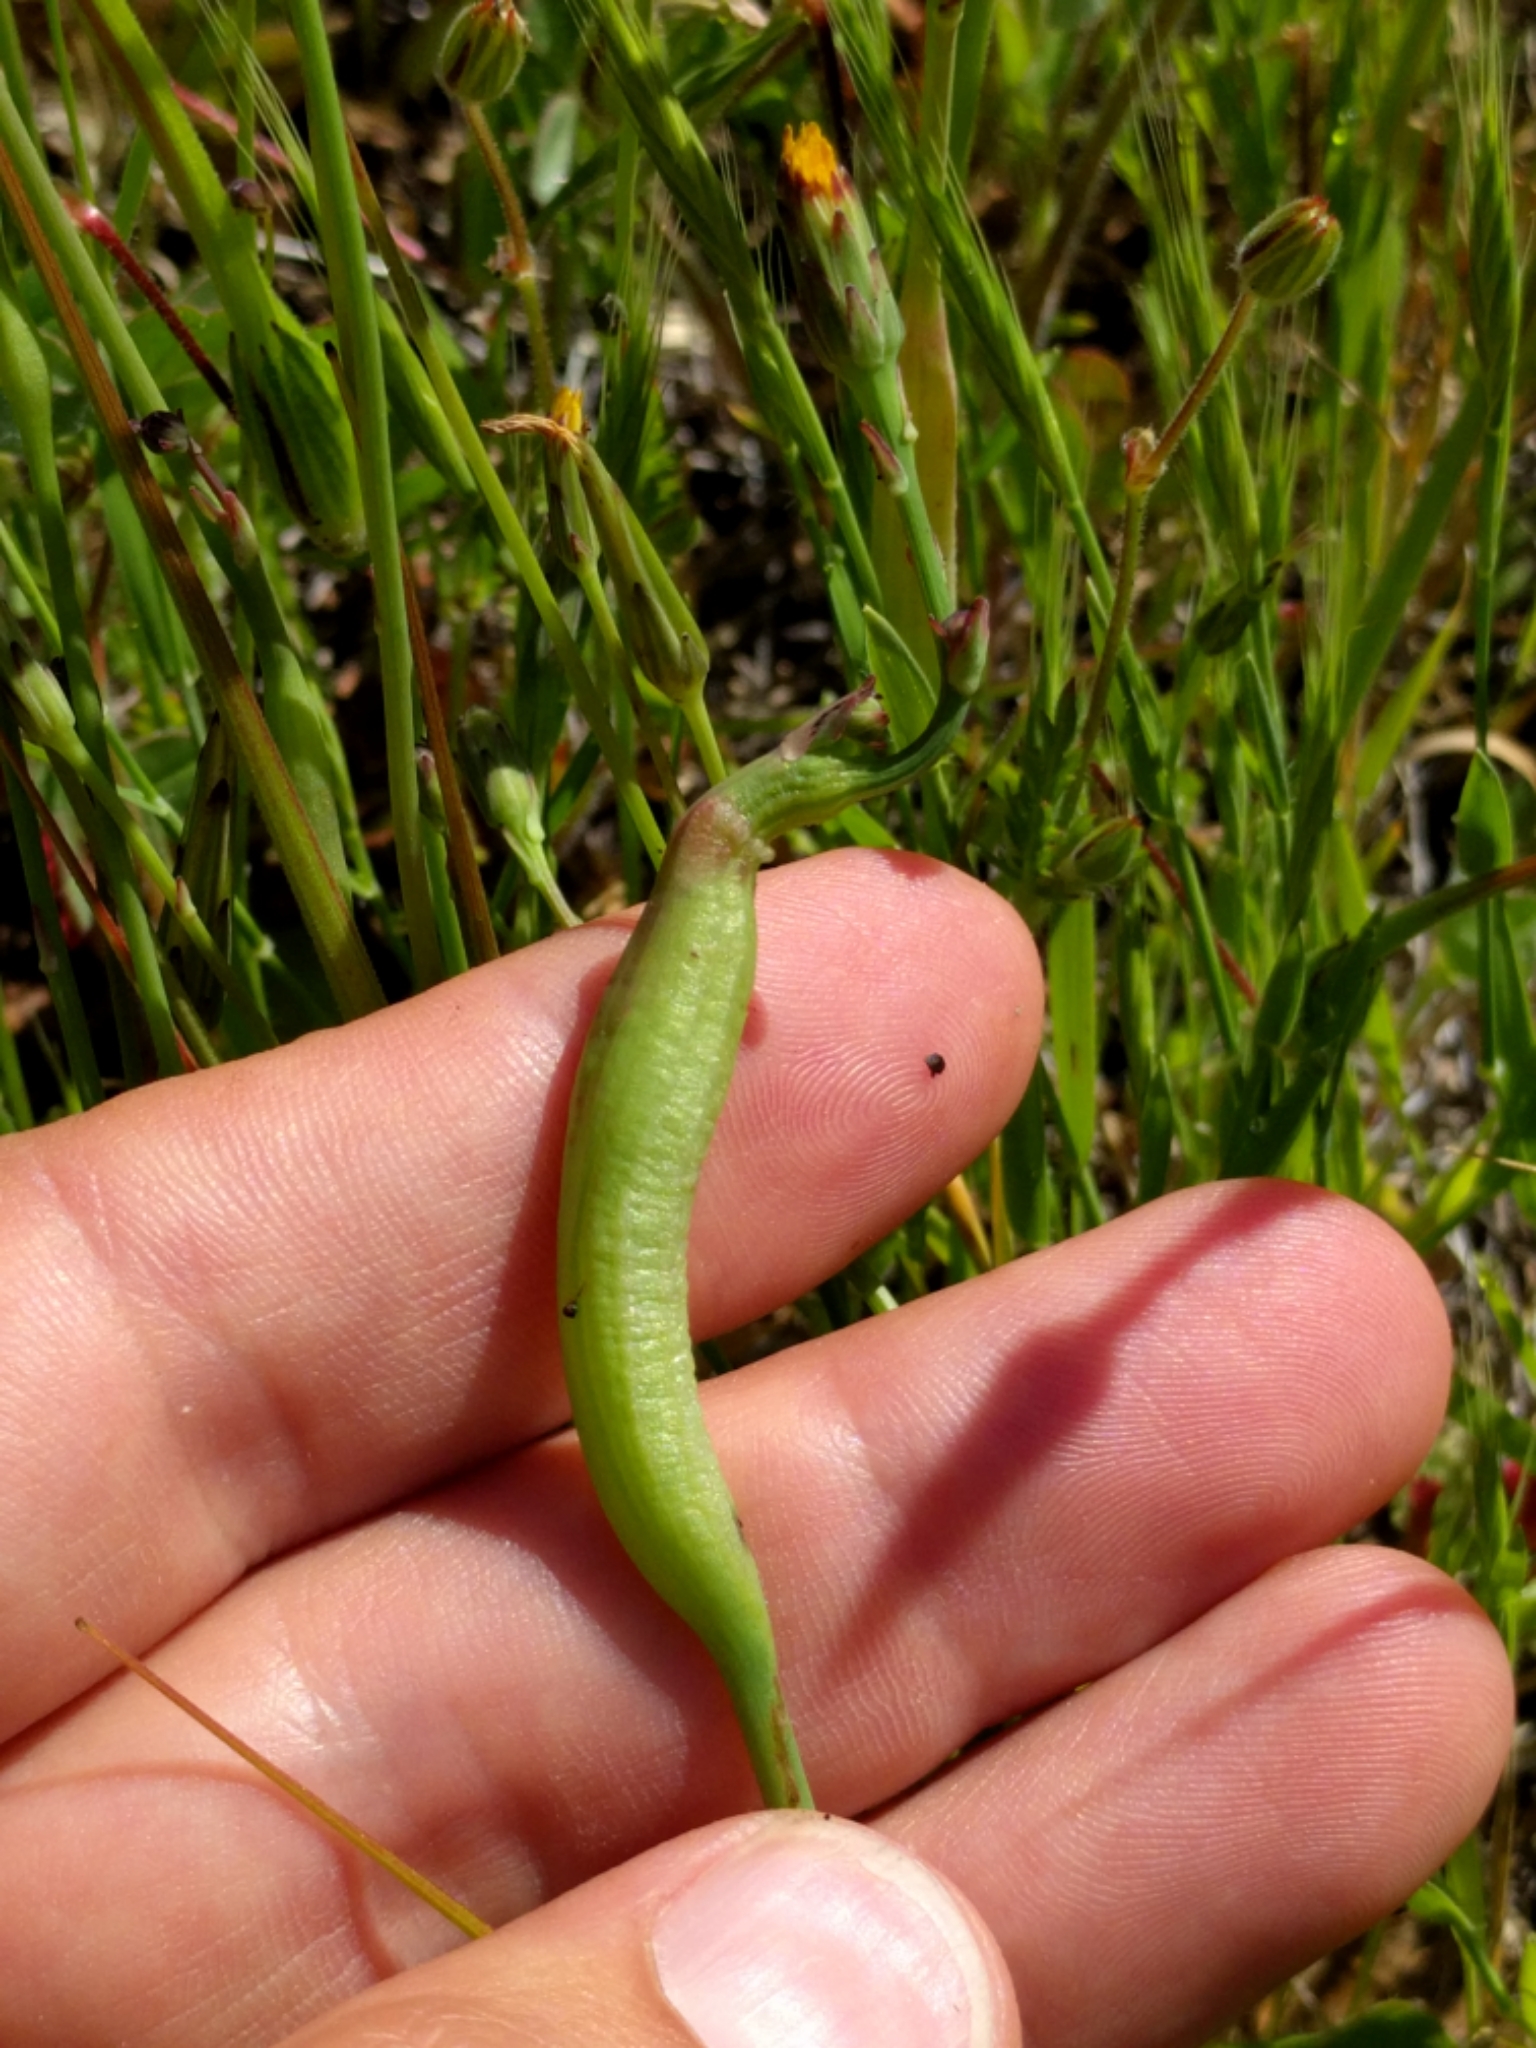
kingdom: Animalia
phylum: Arthropoda
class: Insecta
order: Hymenoptera
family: Cynipidae
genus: Phanacis
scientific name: Phanacis hypochoeridis
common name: Gall wasp
